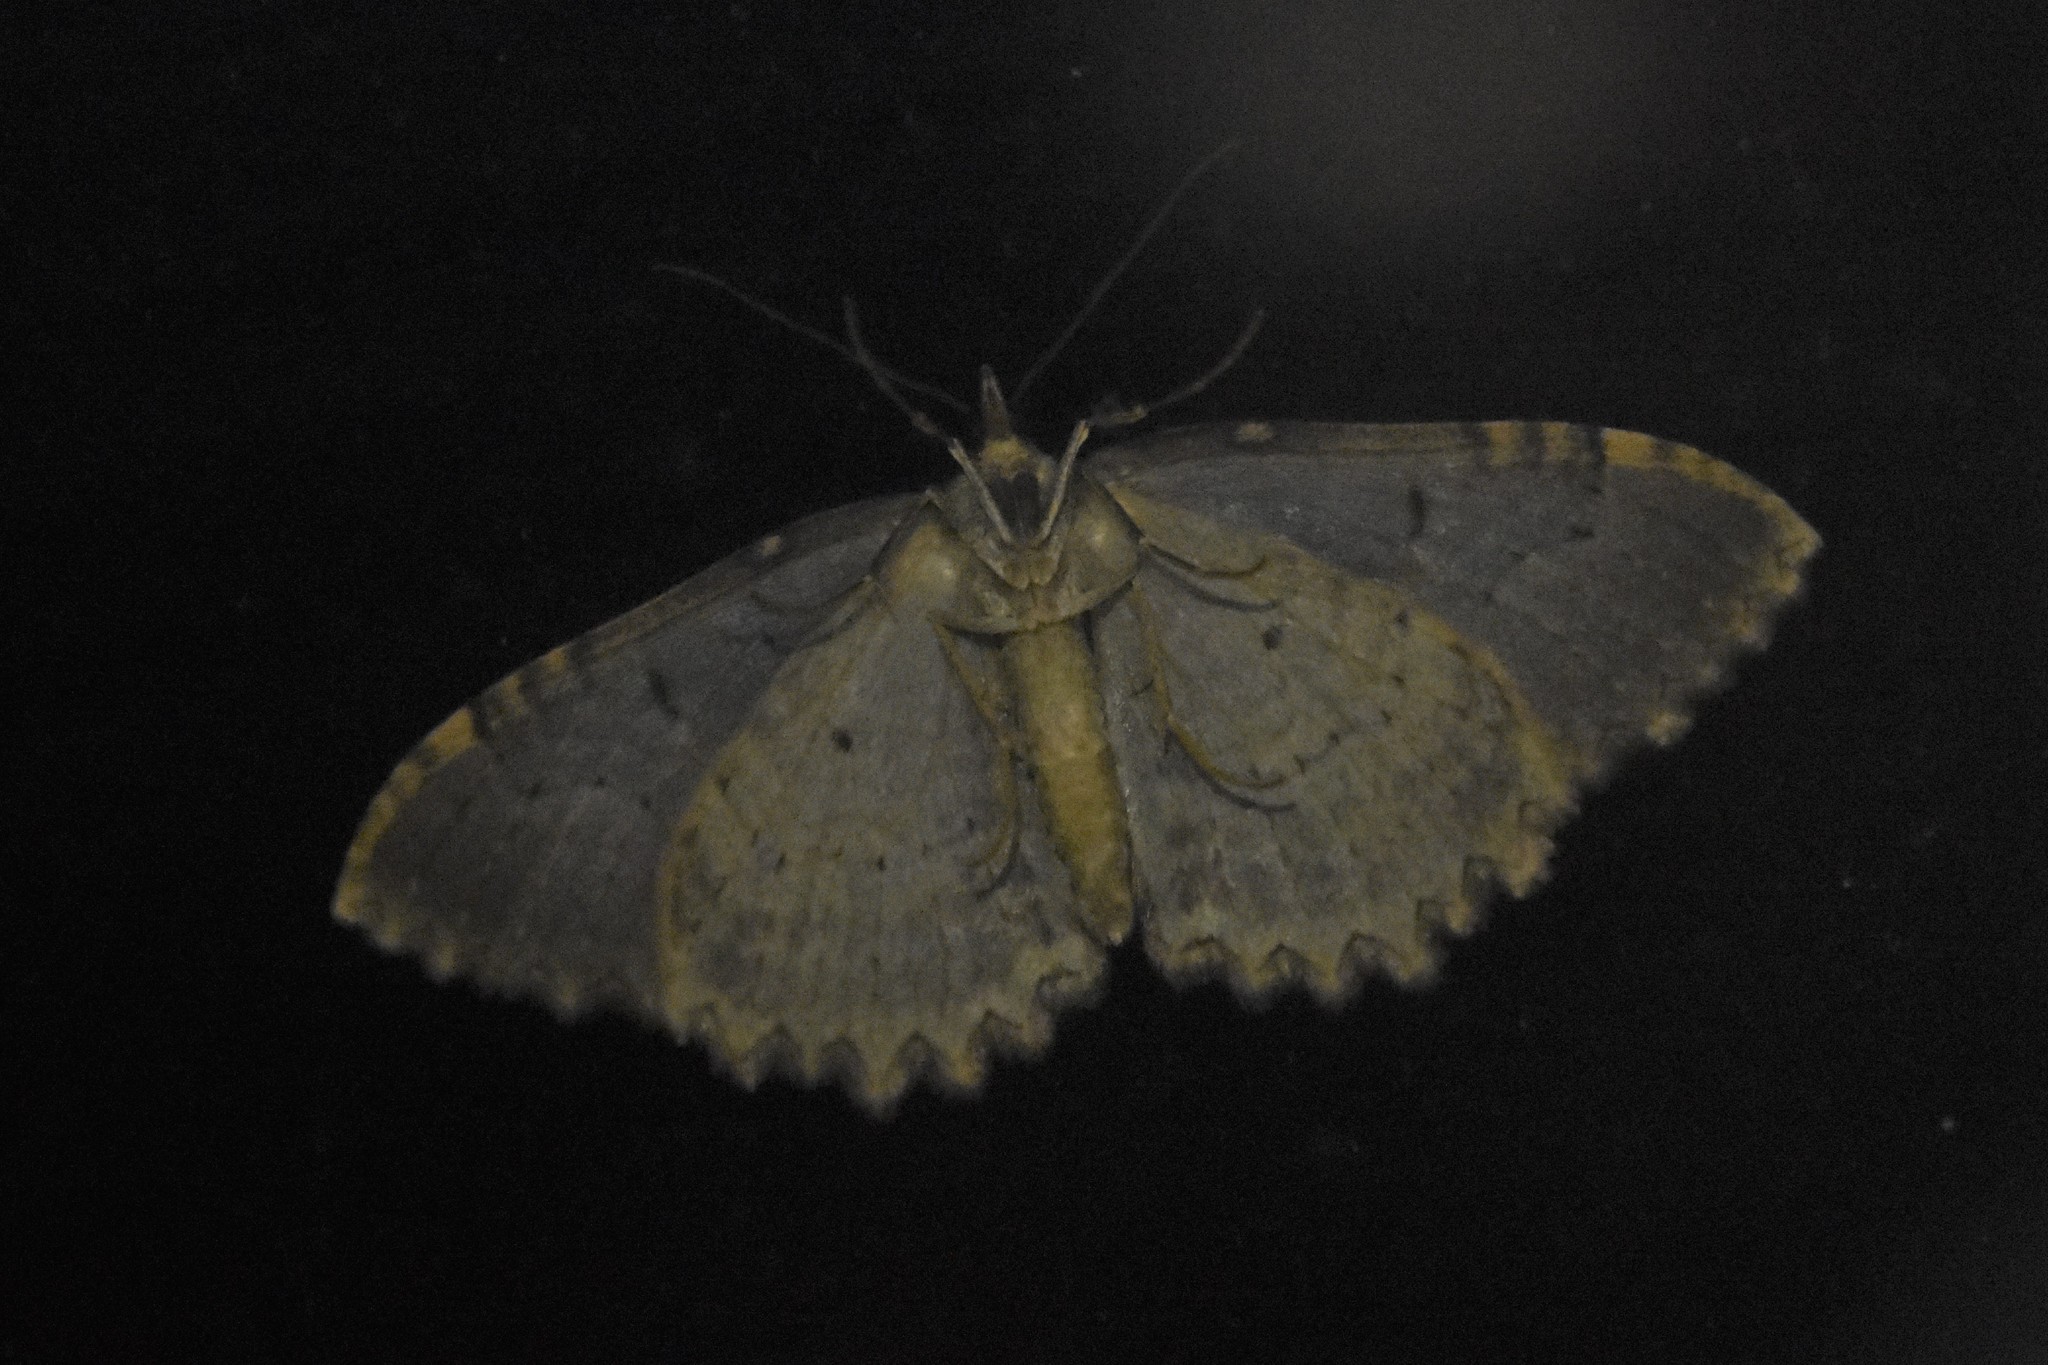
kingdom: Animalia
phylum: Arthropoda
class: Insecta
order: Lepidoptera
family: Geometridae
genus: Triphosa
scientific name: Triphosa haesitata
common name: Tissue moth
